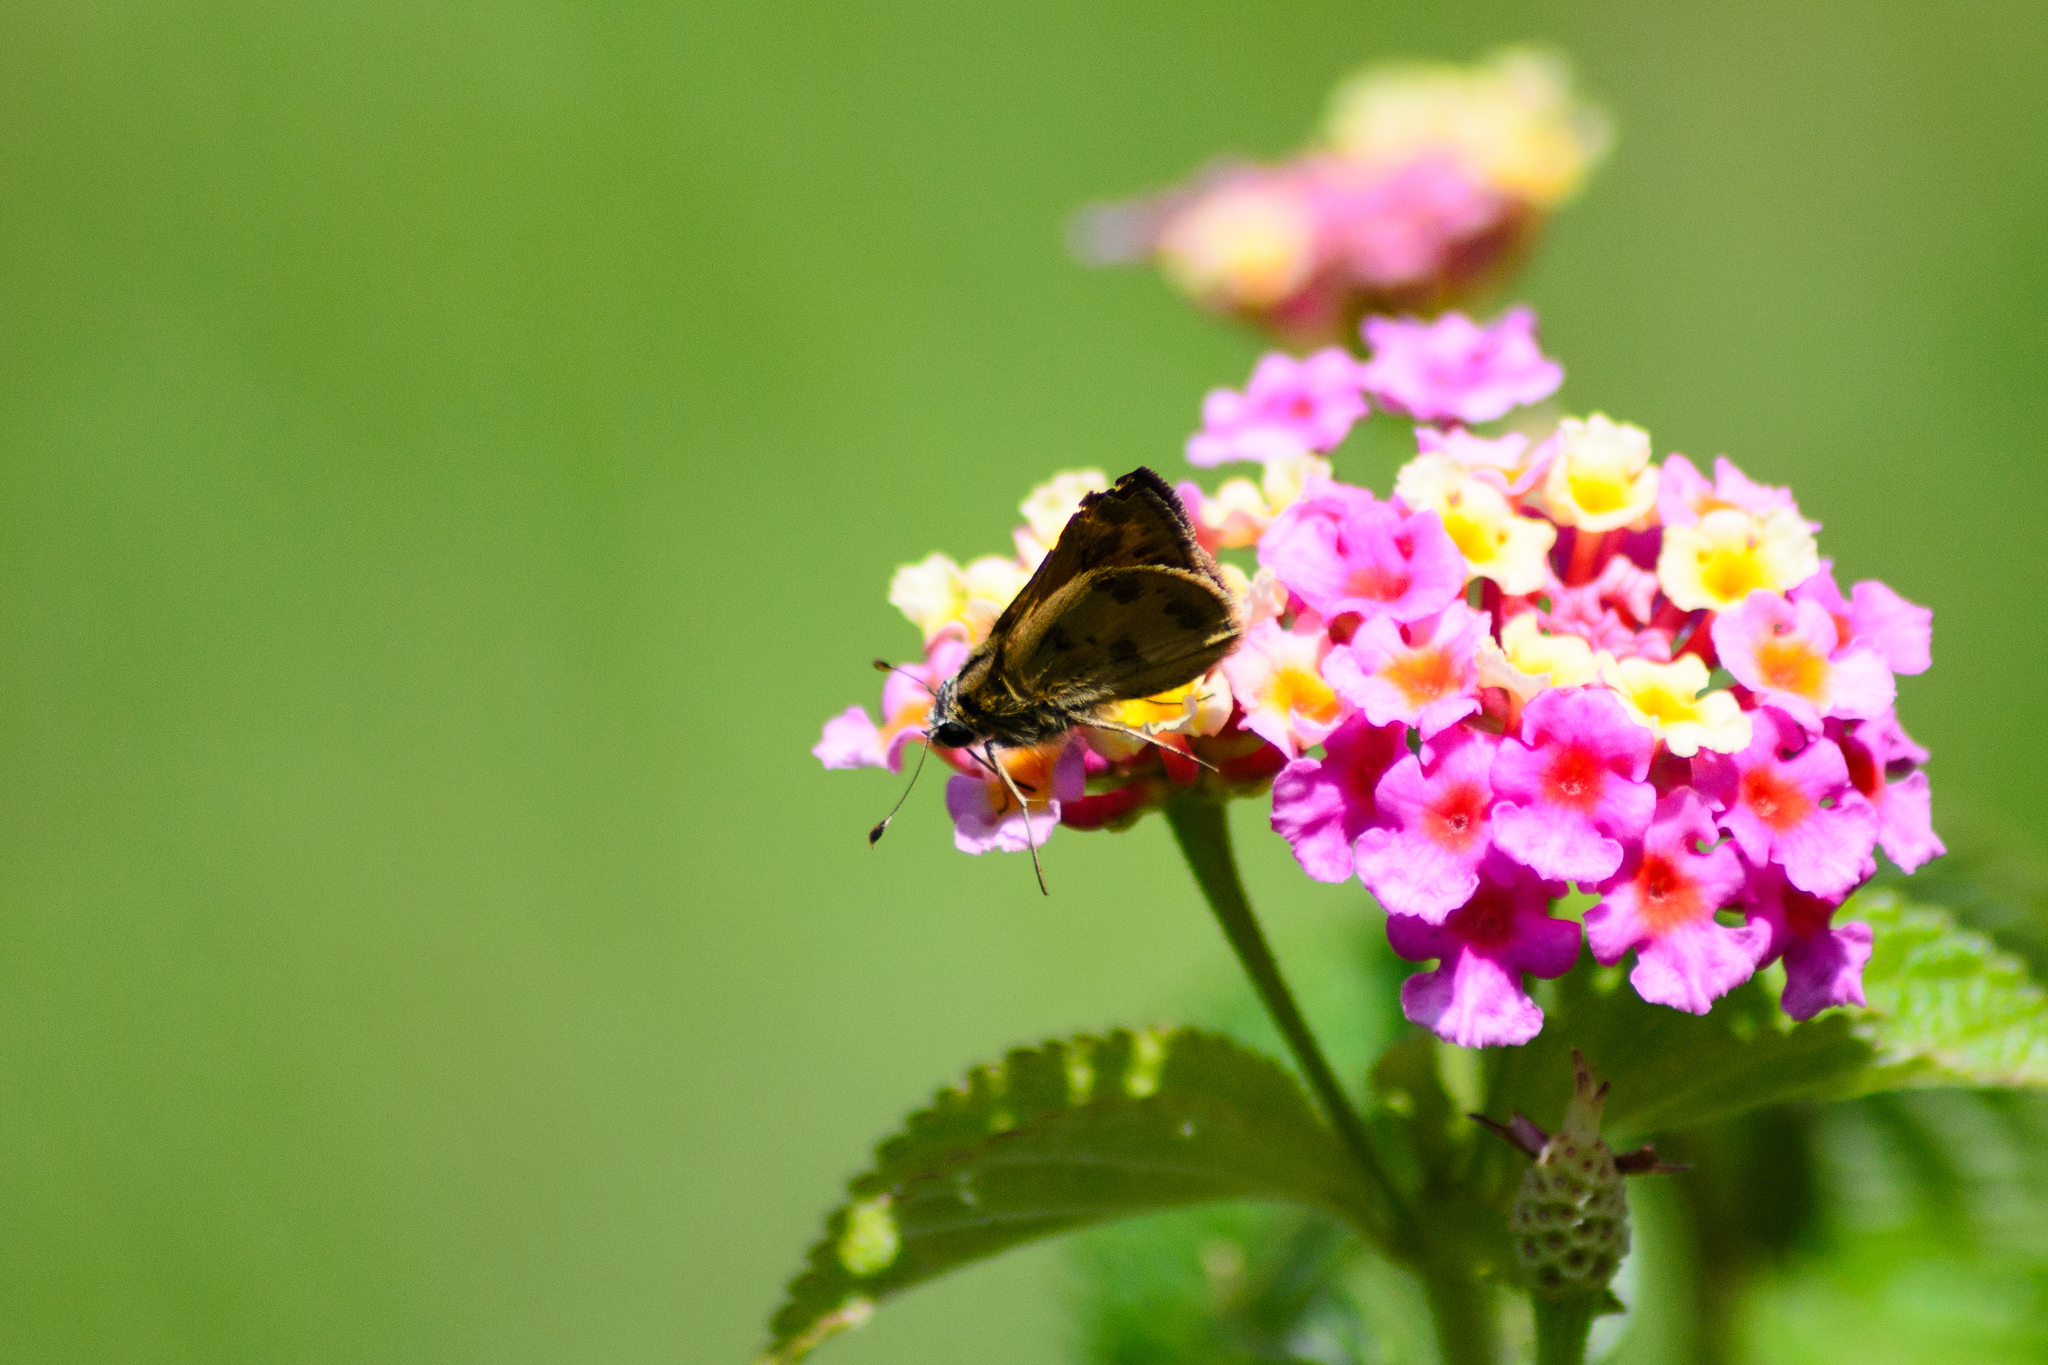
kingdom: Animalia
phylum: Arthropoda
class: Insecta
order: Lepidoptera
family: Hesperiidae
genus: Polites
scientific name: Polites vibex
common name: Whirlabout
